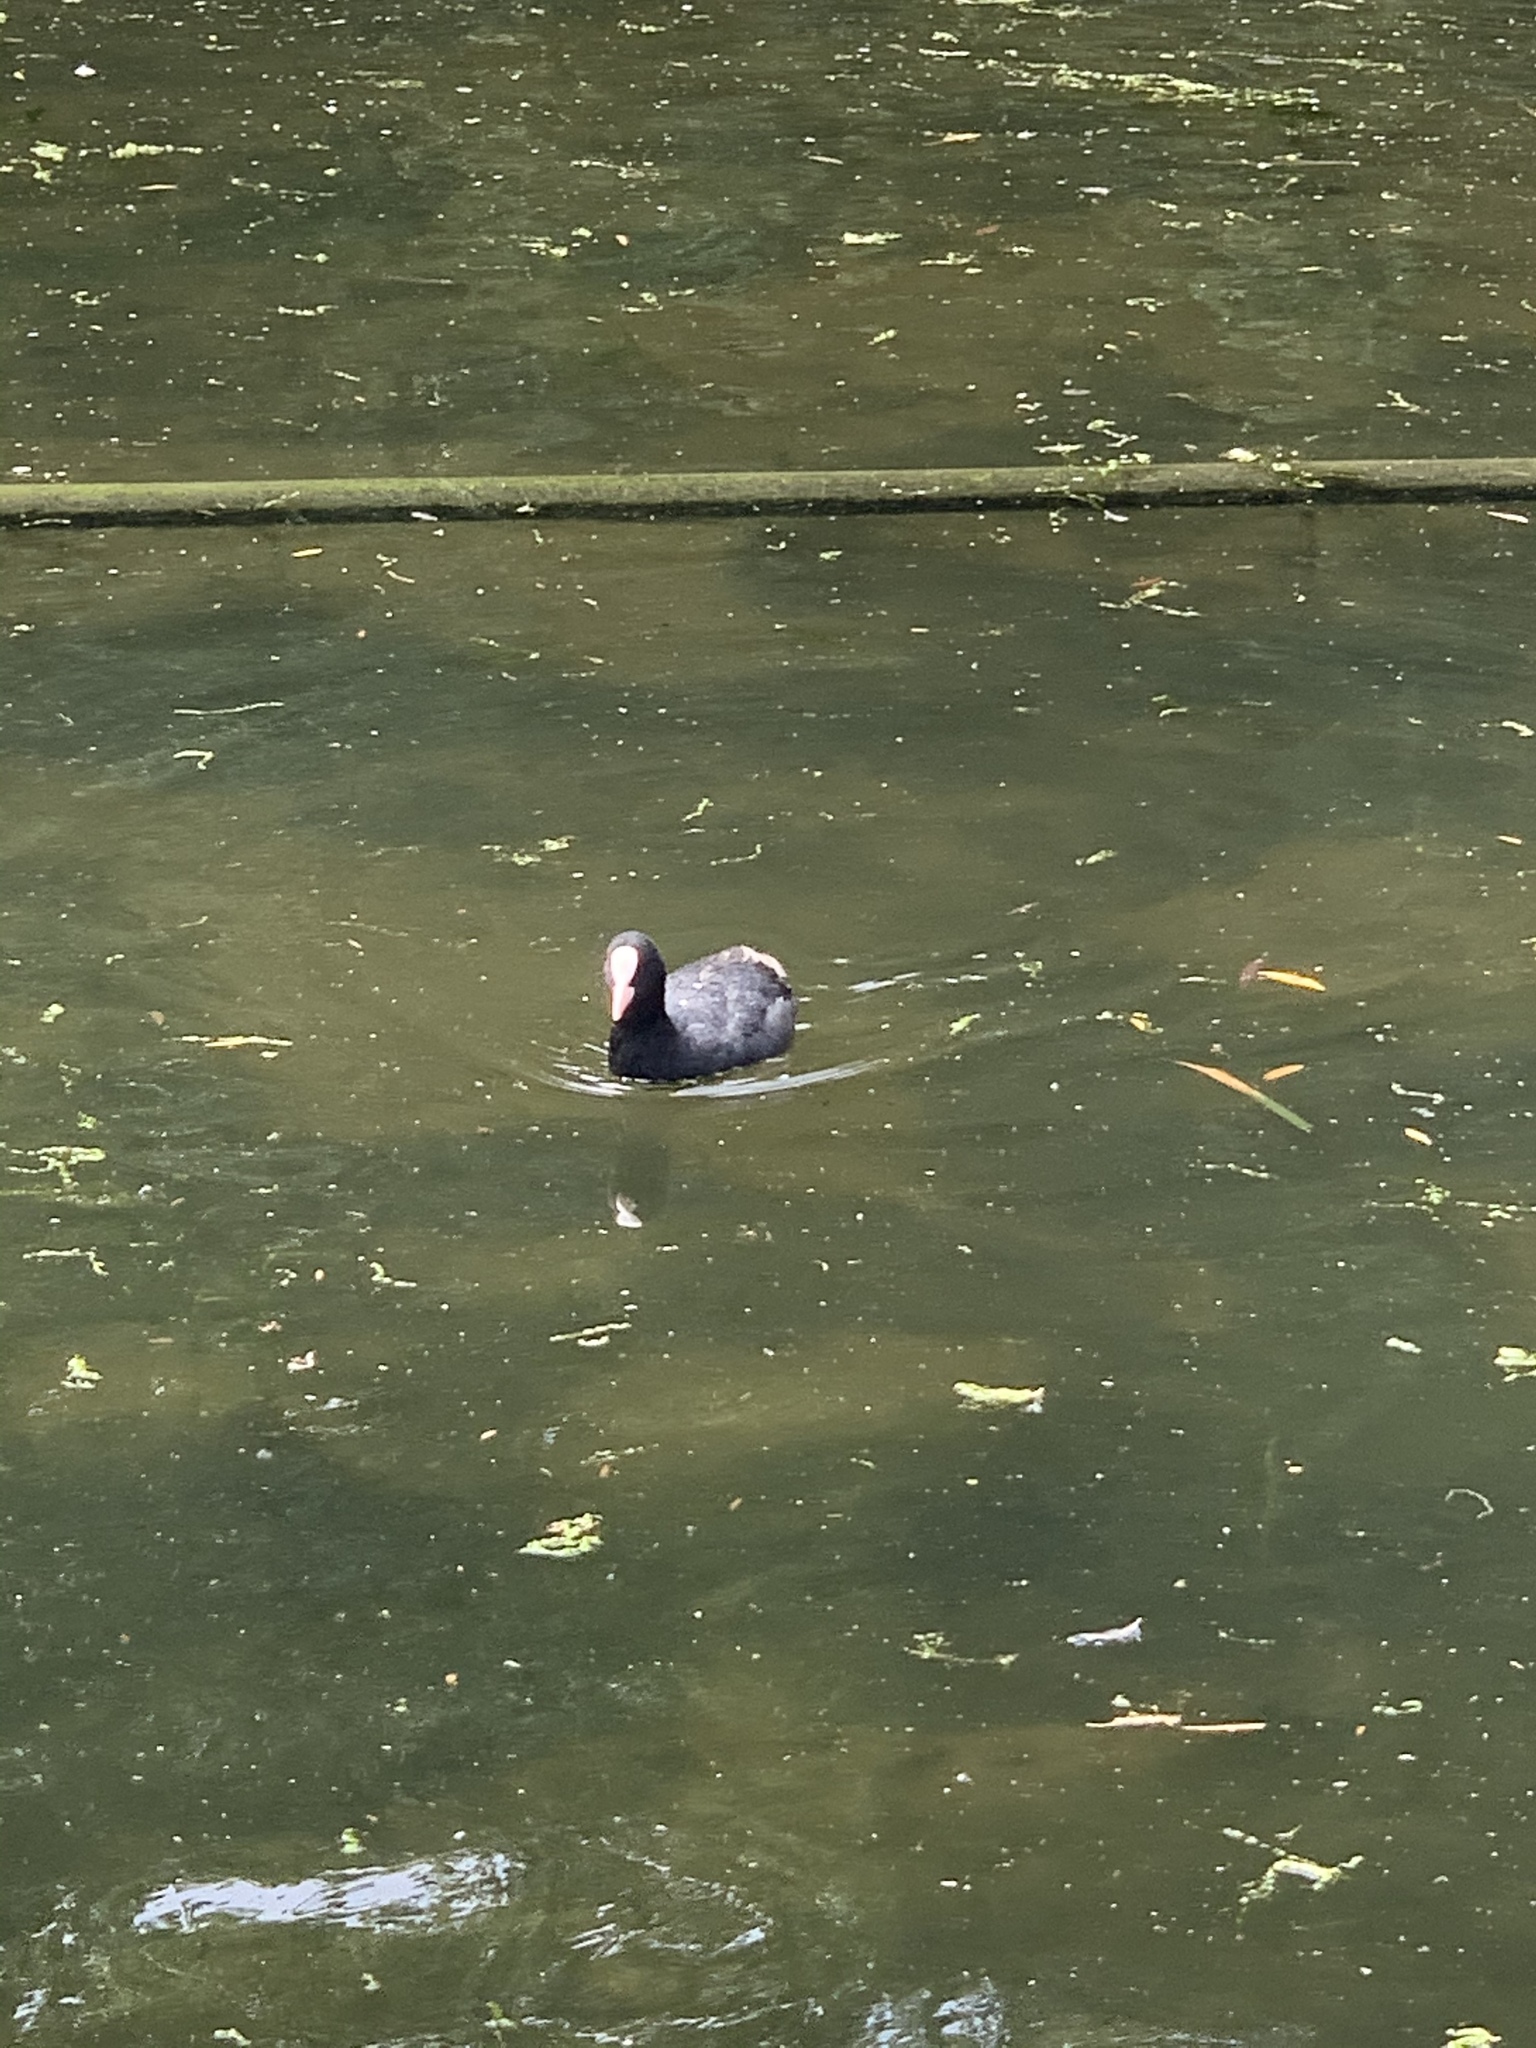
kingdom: Animalia
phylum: Chordata
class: Aves
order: Gruiformes
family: Rallidae
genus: Fulica
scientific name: Fulica atra
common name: Eurasian coot
